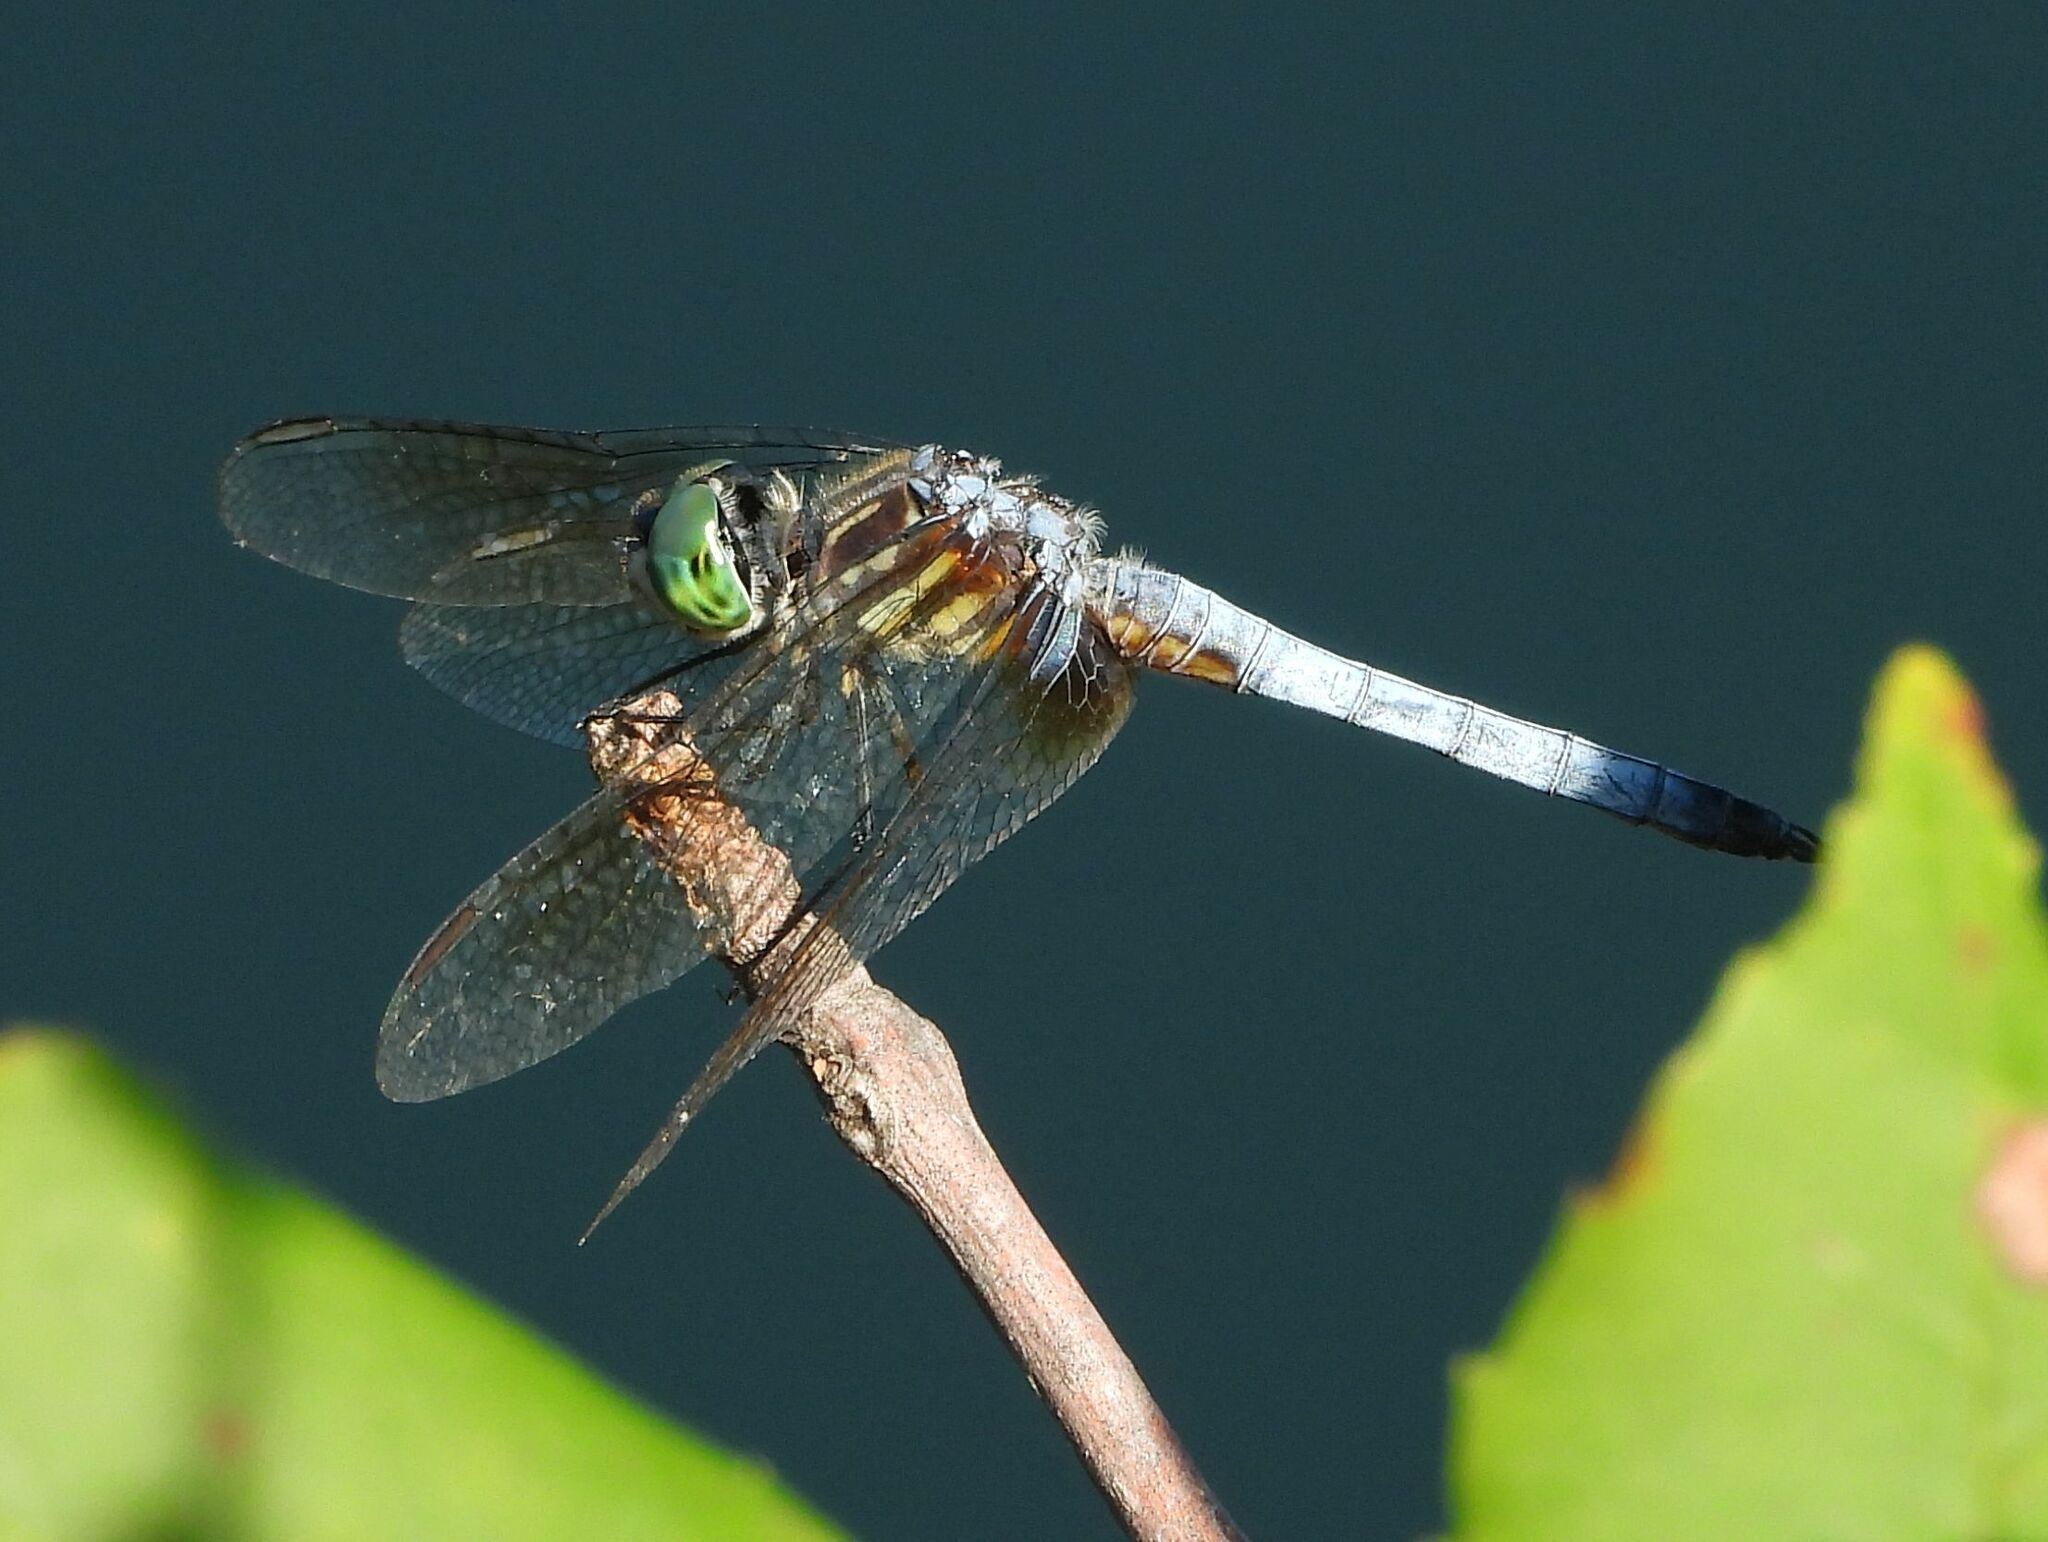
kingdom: Animalia
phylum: Arthropoda
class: Insecta
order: Odonata
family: Libellulidae
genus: Pachydiplax
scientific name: Pachydiplax longipennis
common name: Blue dasher
